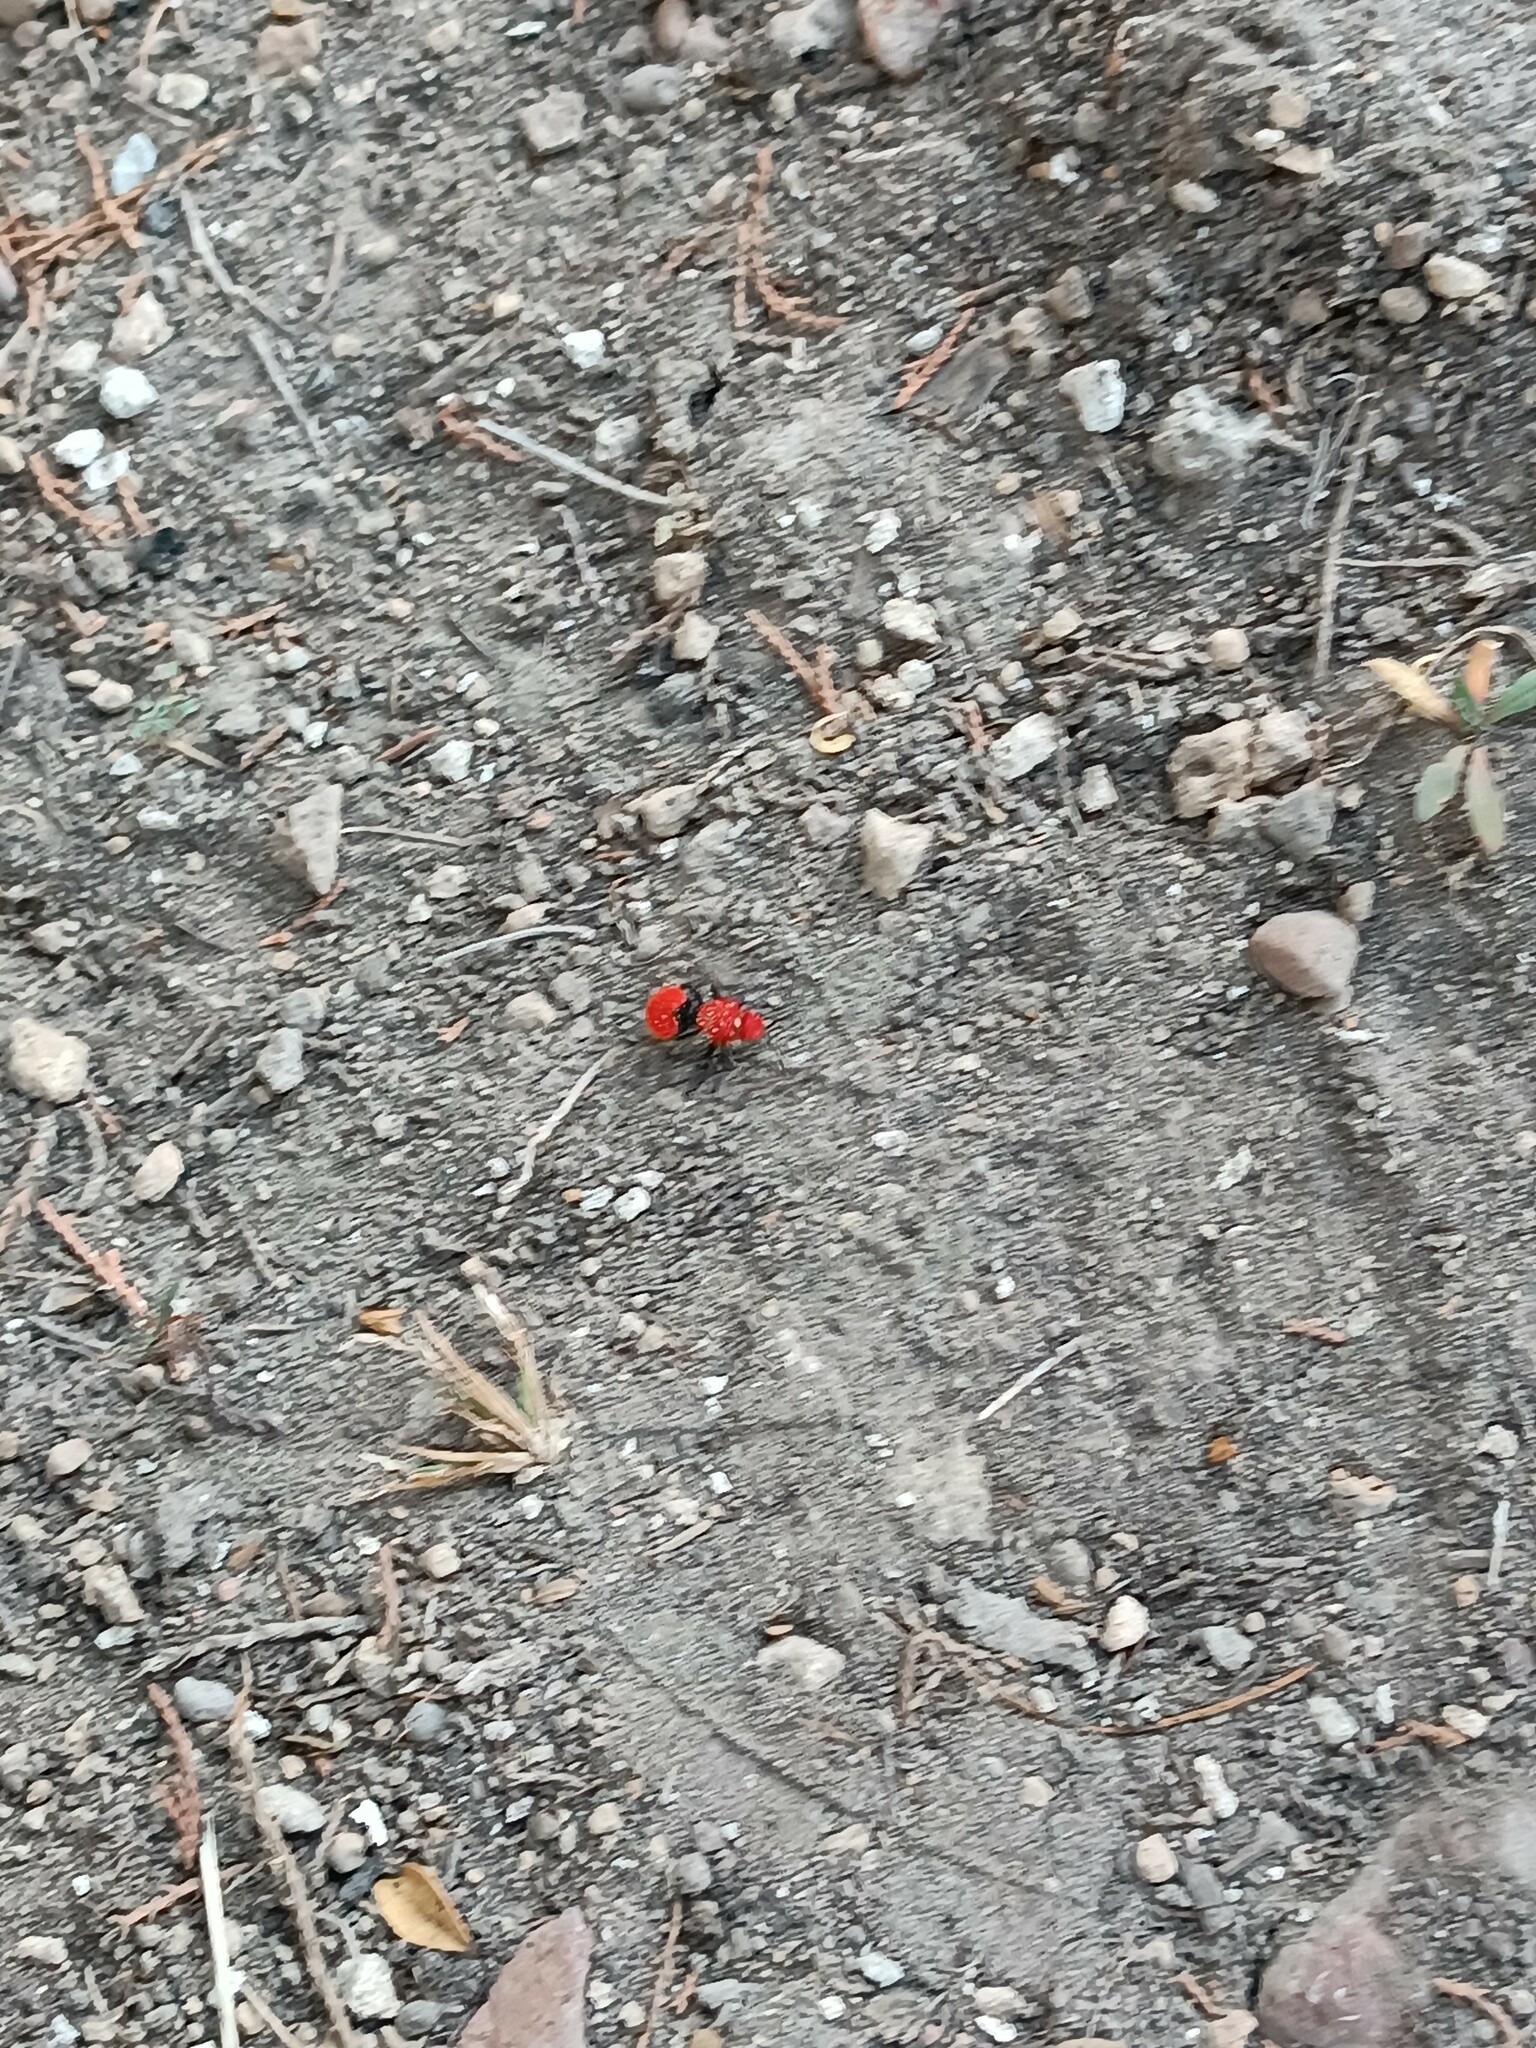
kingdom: Animalia
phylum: Arthropoda
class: Insecta
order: Hymenoptera
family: Mutillidae
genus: Dasymutilla
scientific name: Dasymutilla
